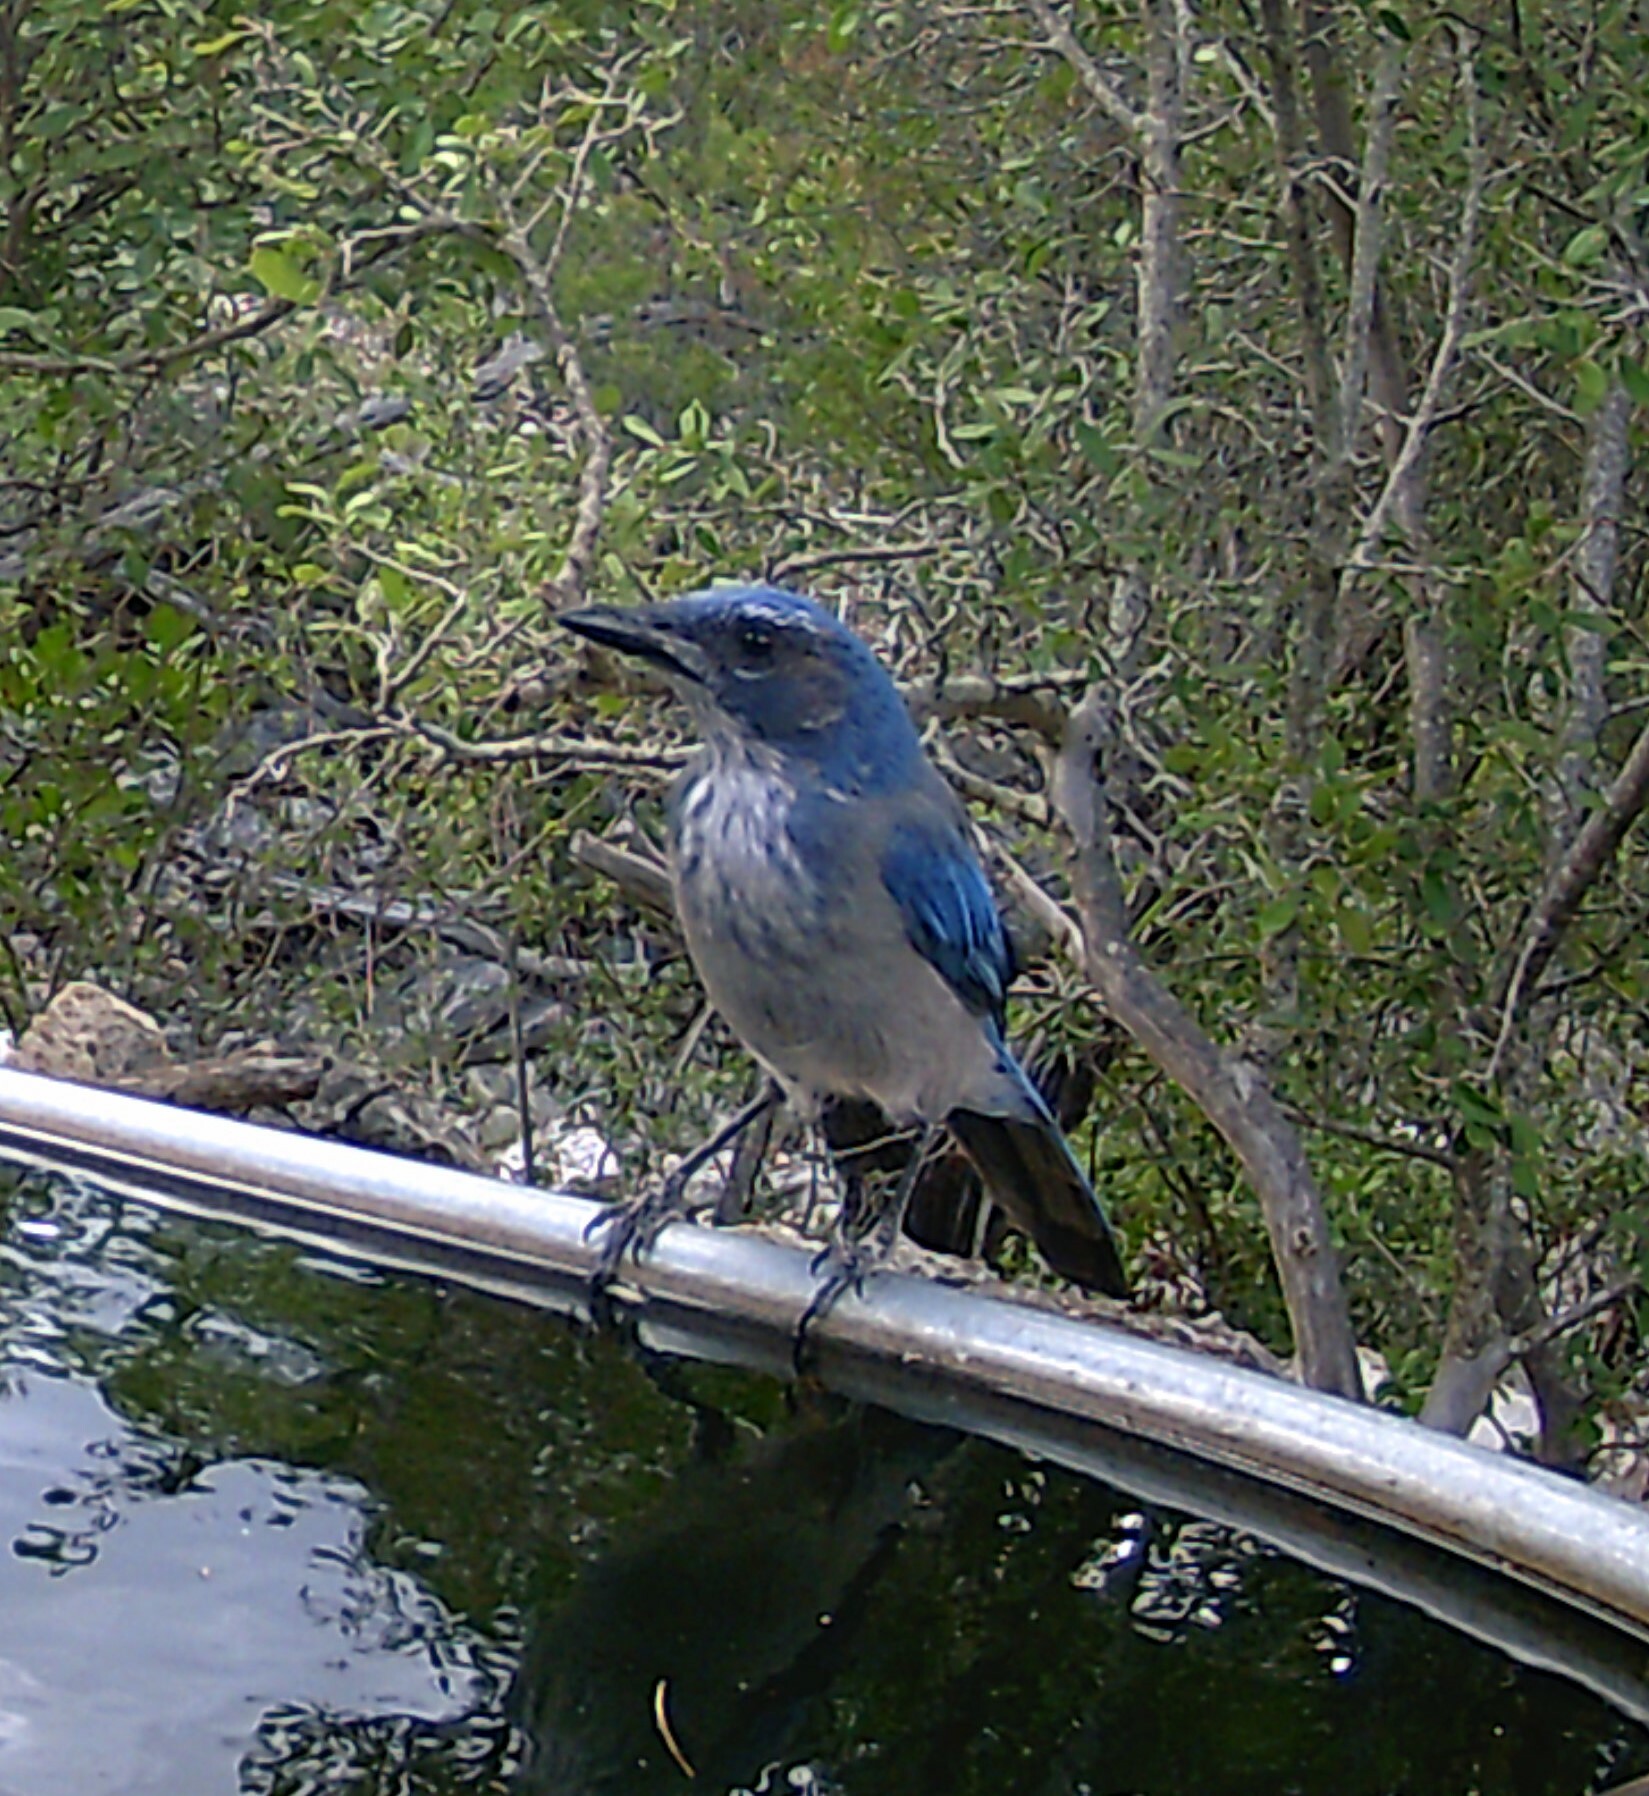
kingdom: Animalia
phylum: Chordata
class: Aves
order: Passeriformes
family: Corvidae
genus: Aphelocoma
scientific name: Aphelocoma woodhouseii
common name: Woodhouse's scrub-jay
